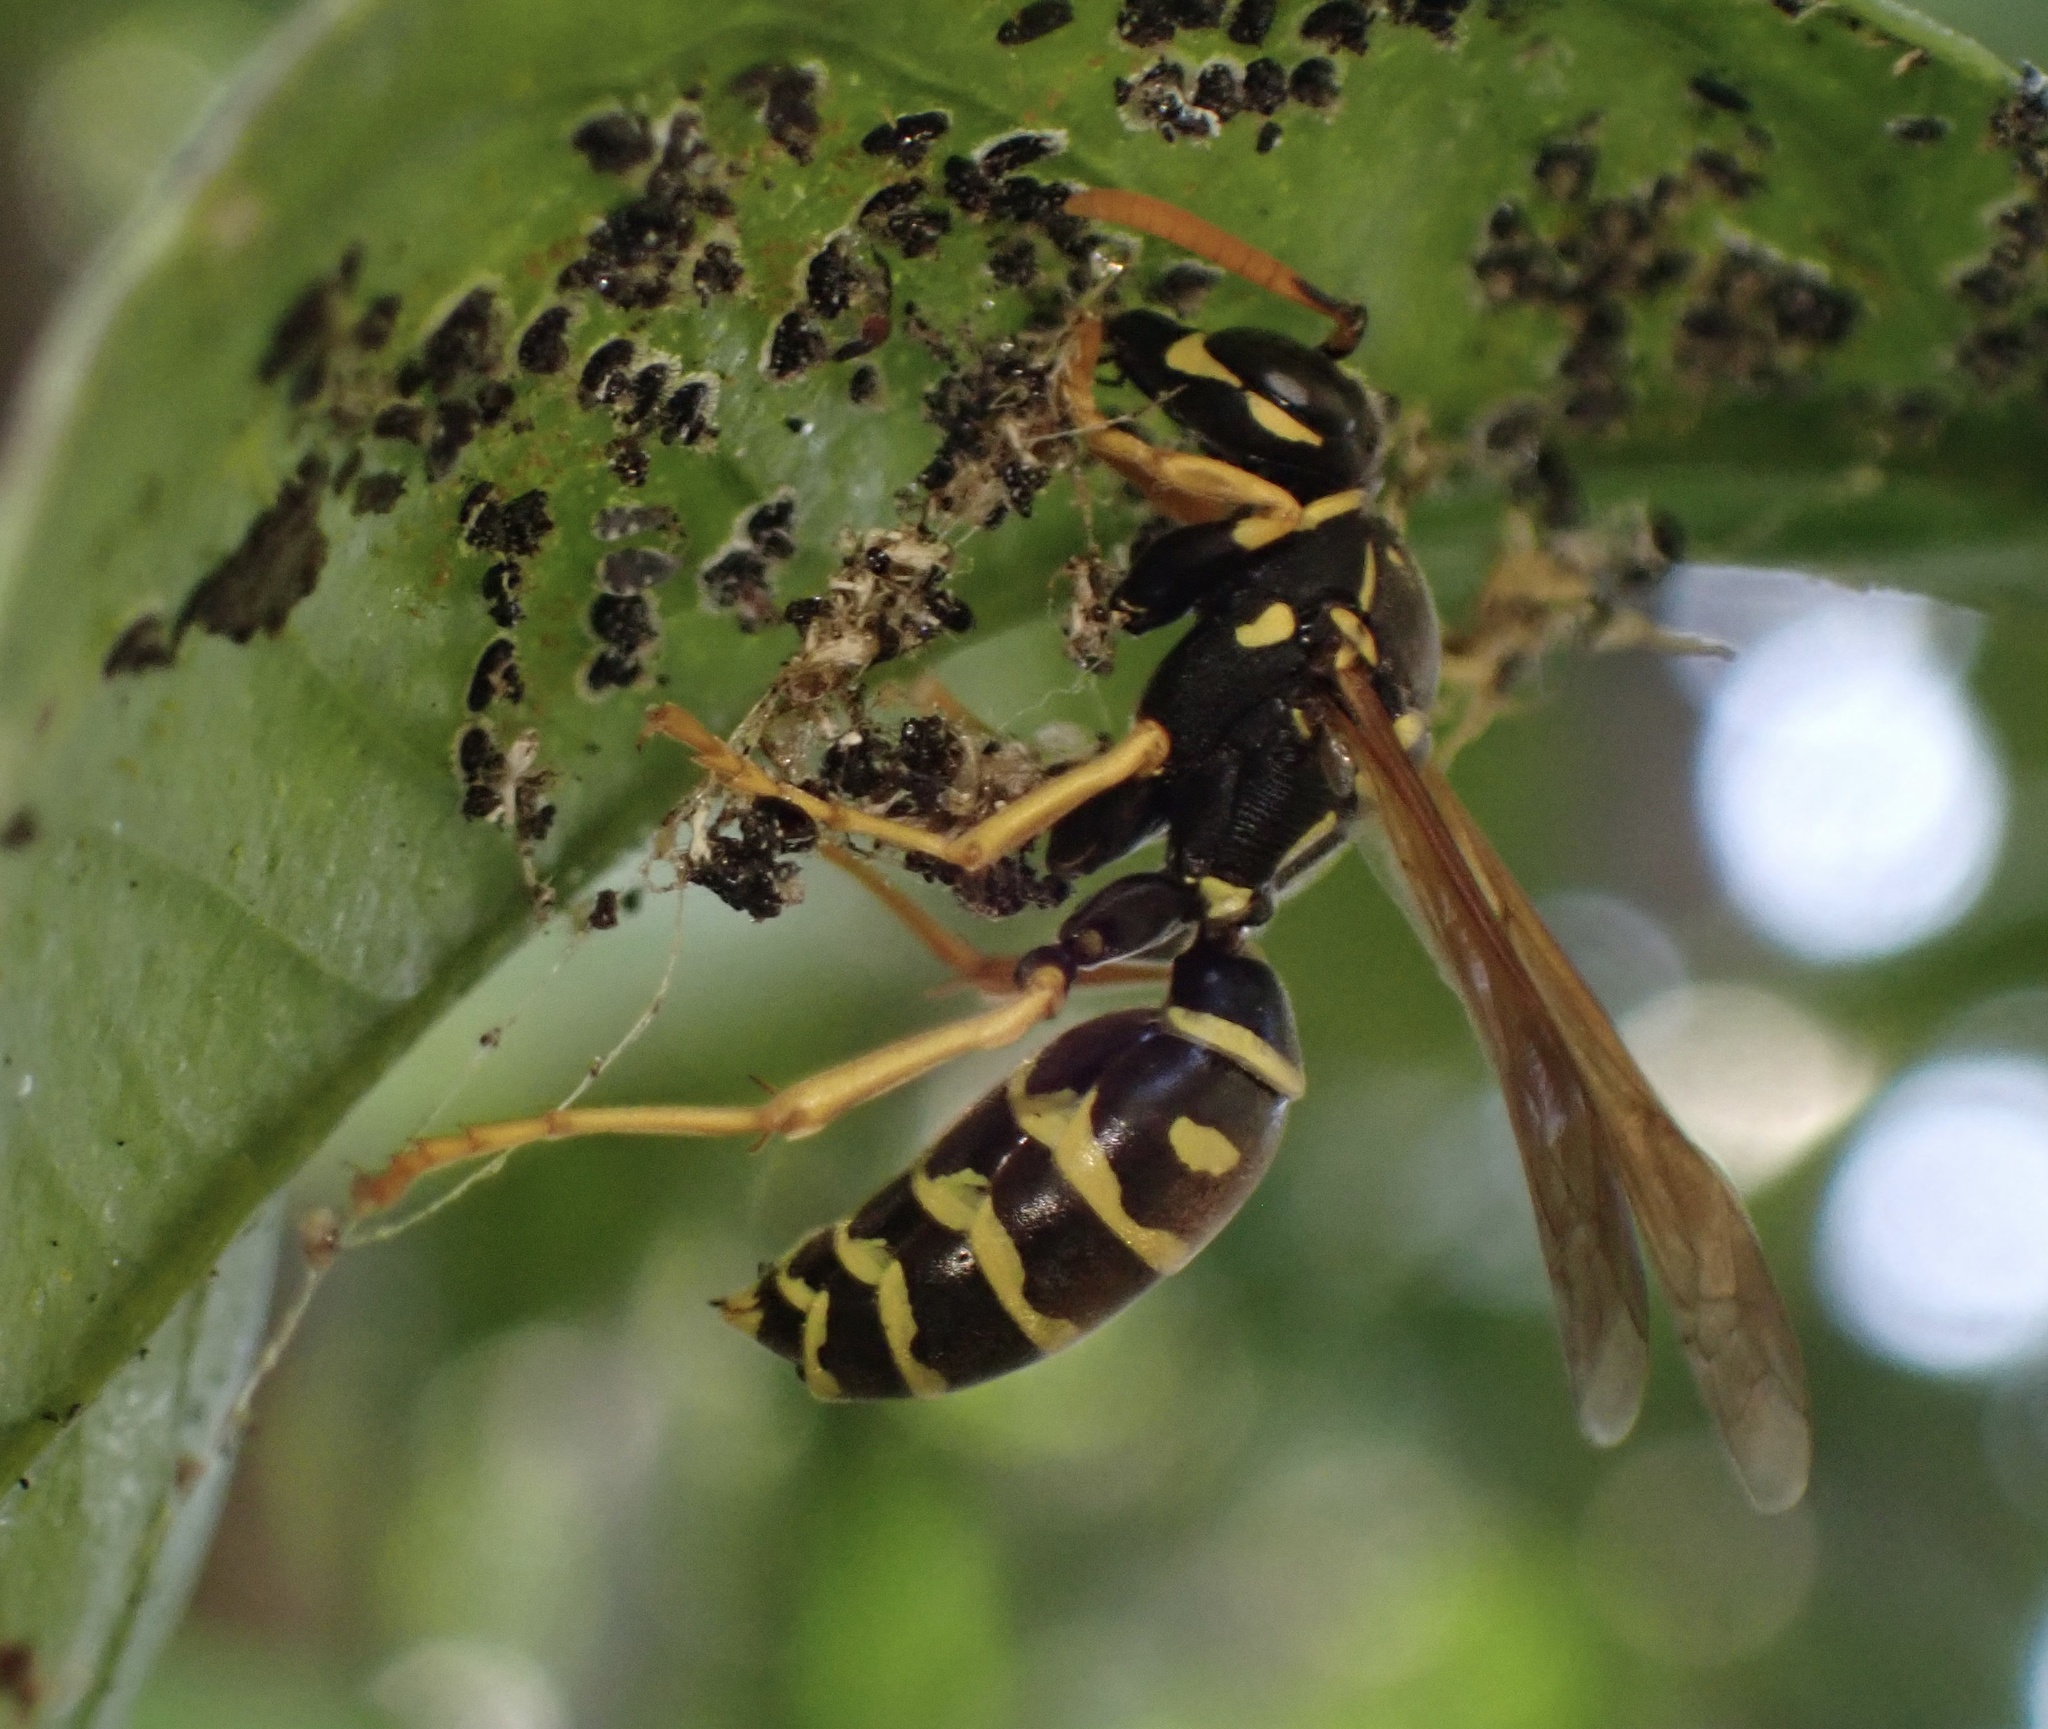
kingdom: Animalia
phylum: Arthropoda
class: Insecta
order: Hymenoptera
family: Eumenidae
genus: Polistes
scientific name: Polistes dominula
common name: Paper wasp
